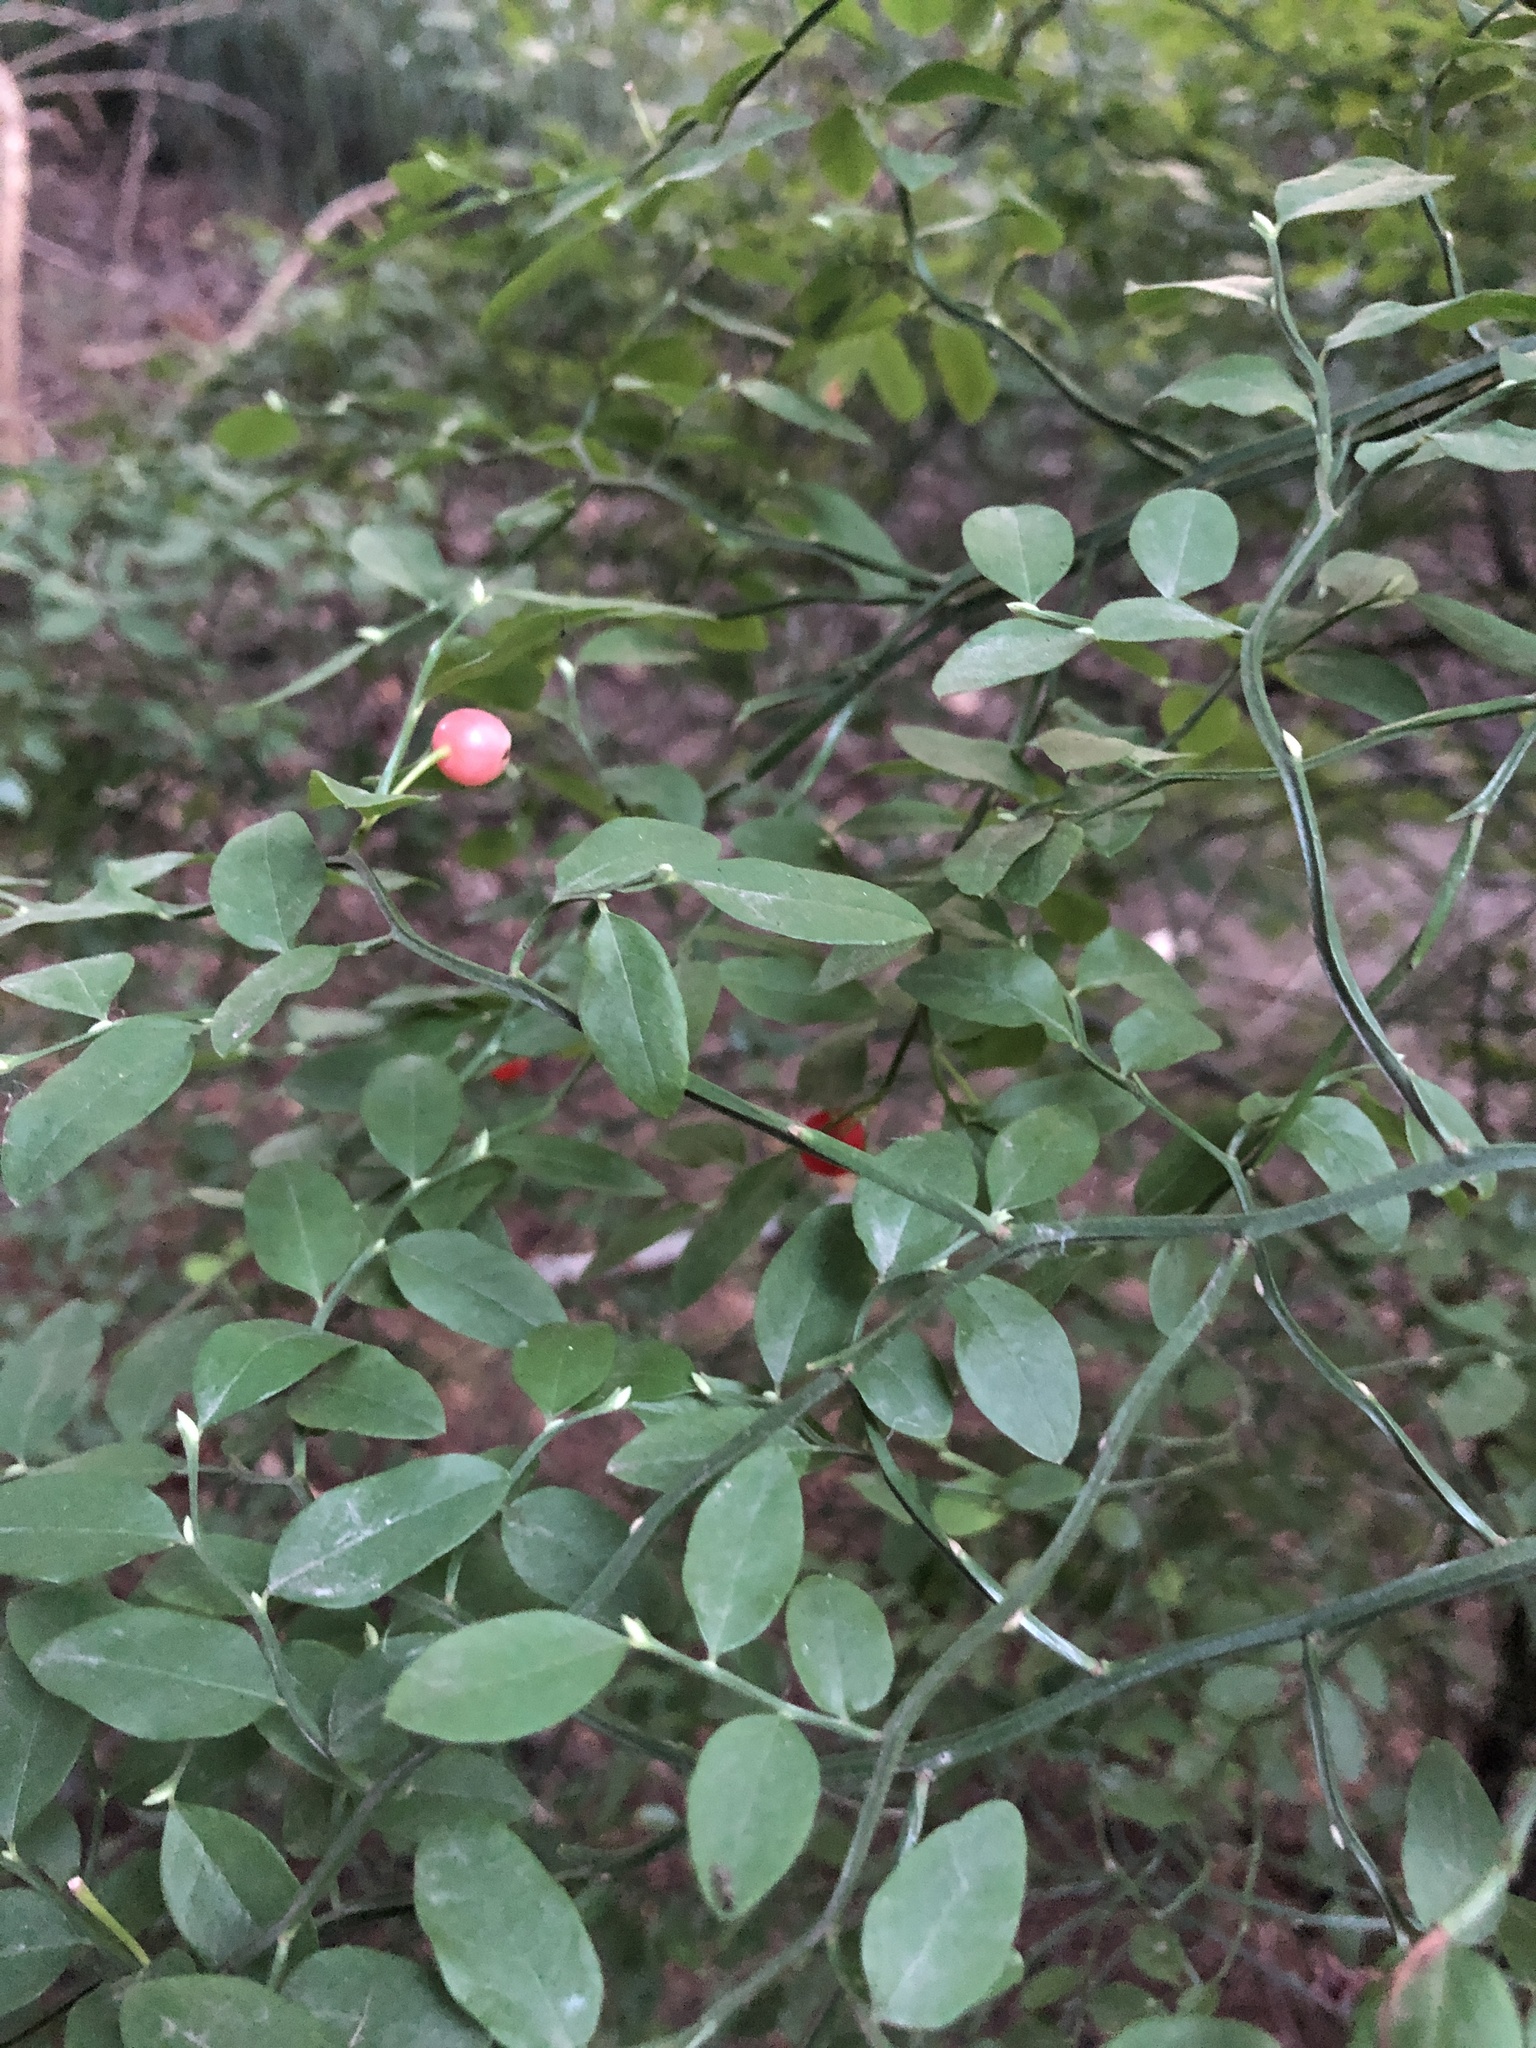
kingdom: Plantae
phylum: Tracheophyta
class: Magnoliopsida
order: Ericales
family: Ericaceae
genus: Vaccinium
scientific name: Vaccinium parvifolium
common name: Red-huckleberry
